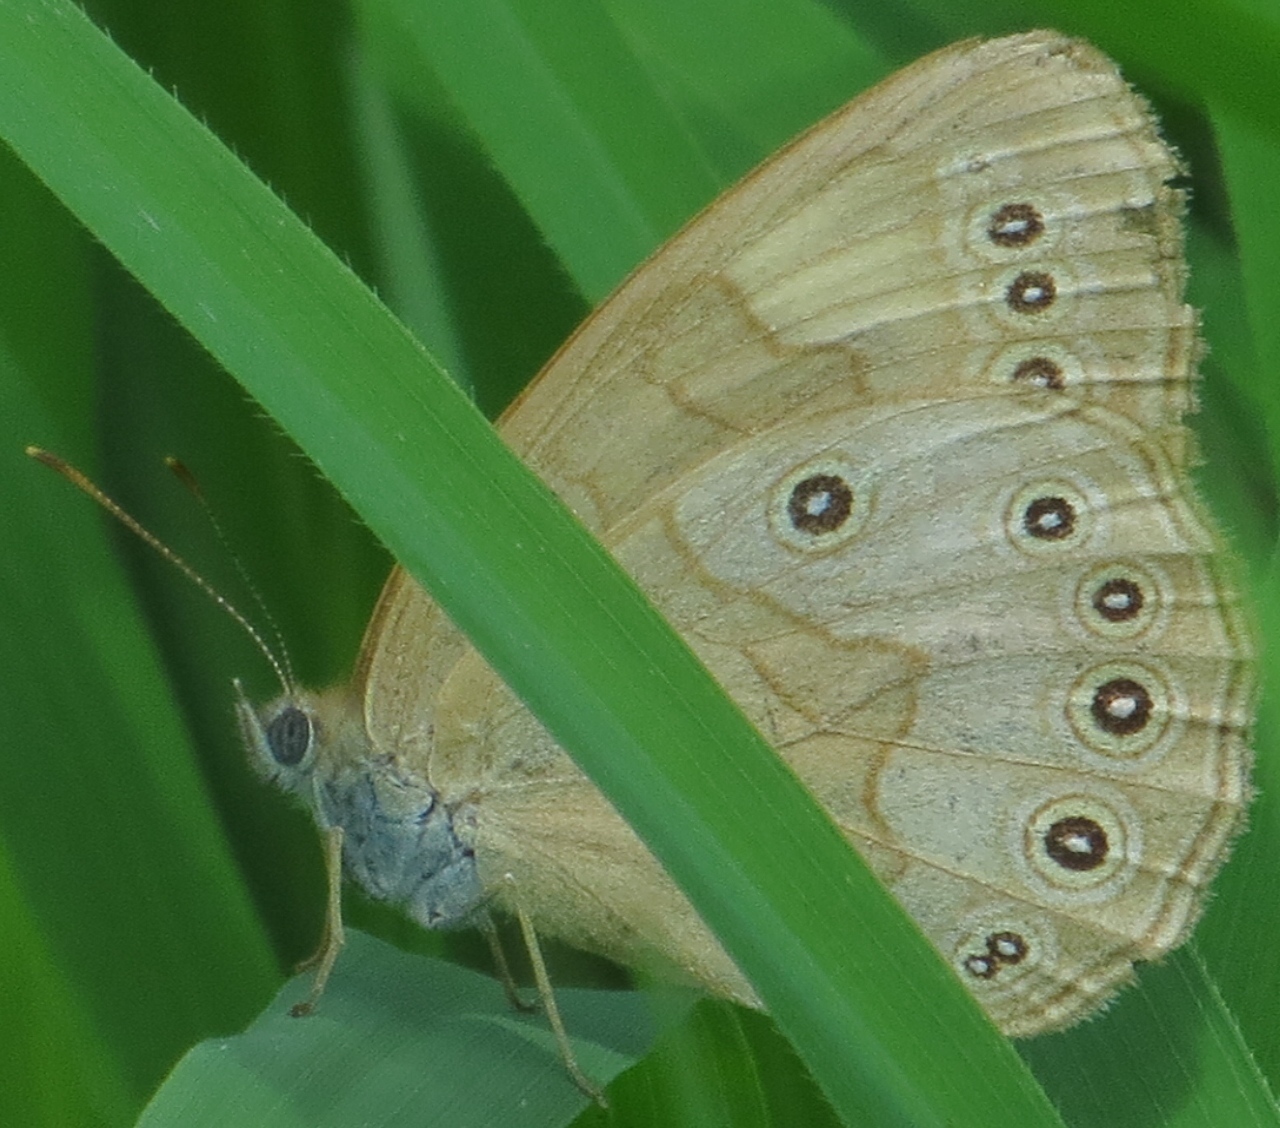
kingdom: Animalia
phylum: Arthropoda
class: Insecta
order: Lepidoptera
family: Nymphalidae
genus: Lethe
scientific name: Lethe eurydice
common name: Eyed brown
